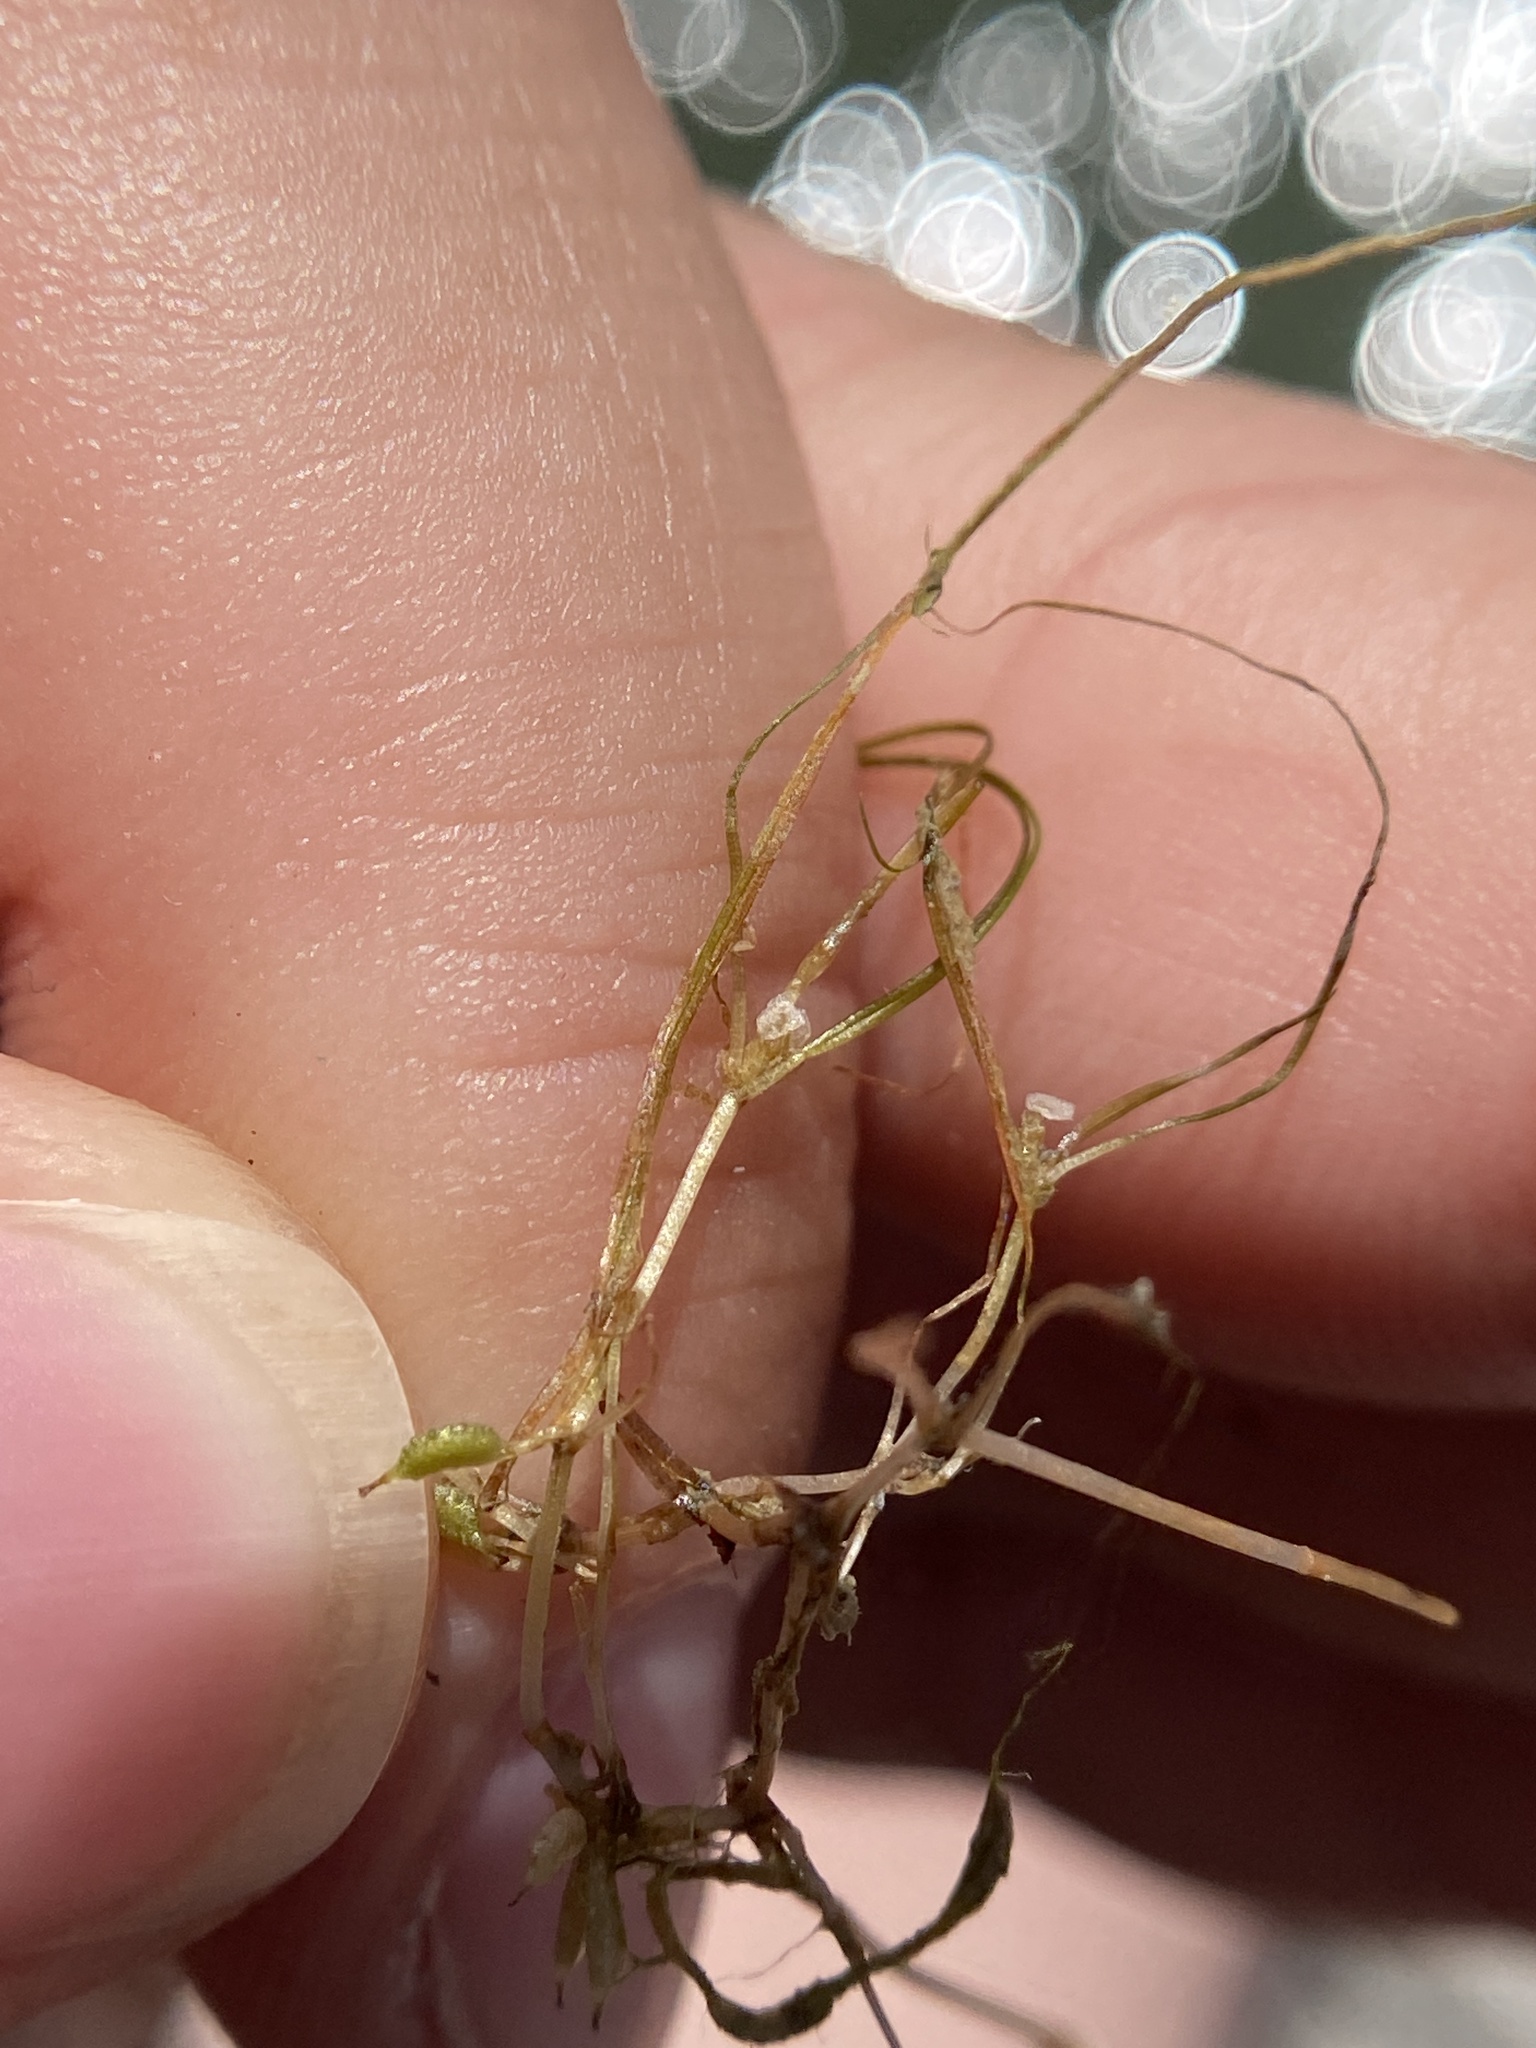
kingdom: Plantae
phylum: Tracheophyta
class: Liliopsida
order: Alismatales
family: Potamogetonaceae
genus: Zannichellia
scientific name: Zannichellia palustris
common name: Horned pondweed
